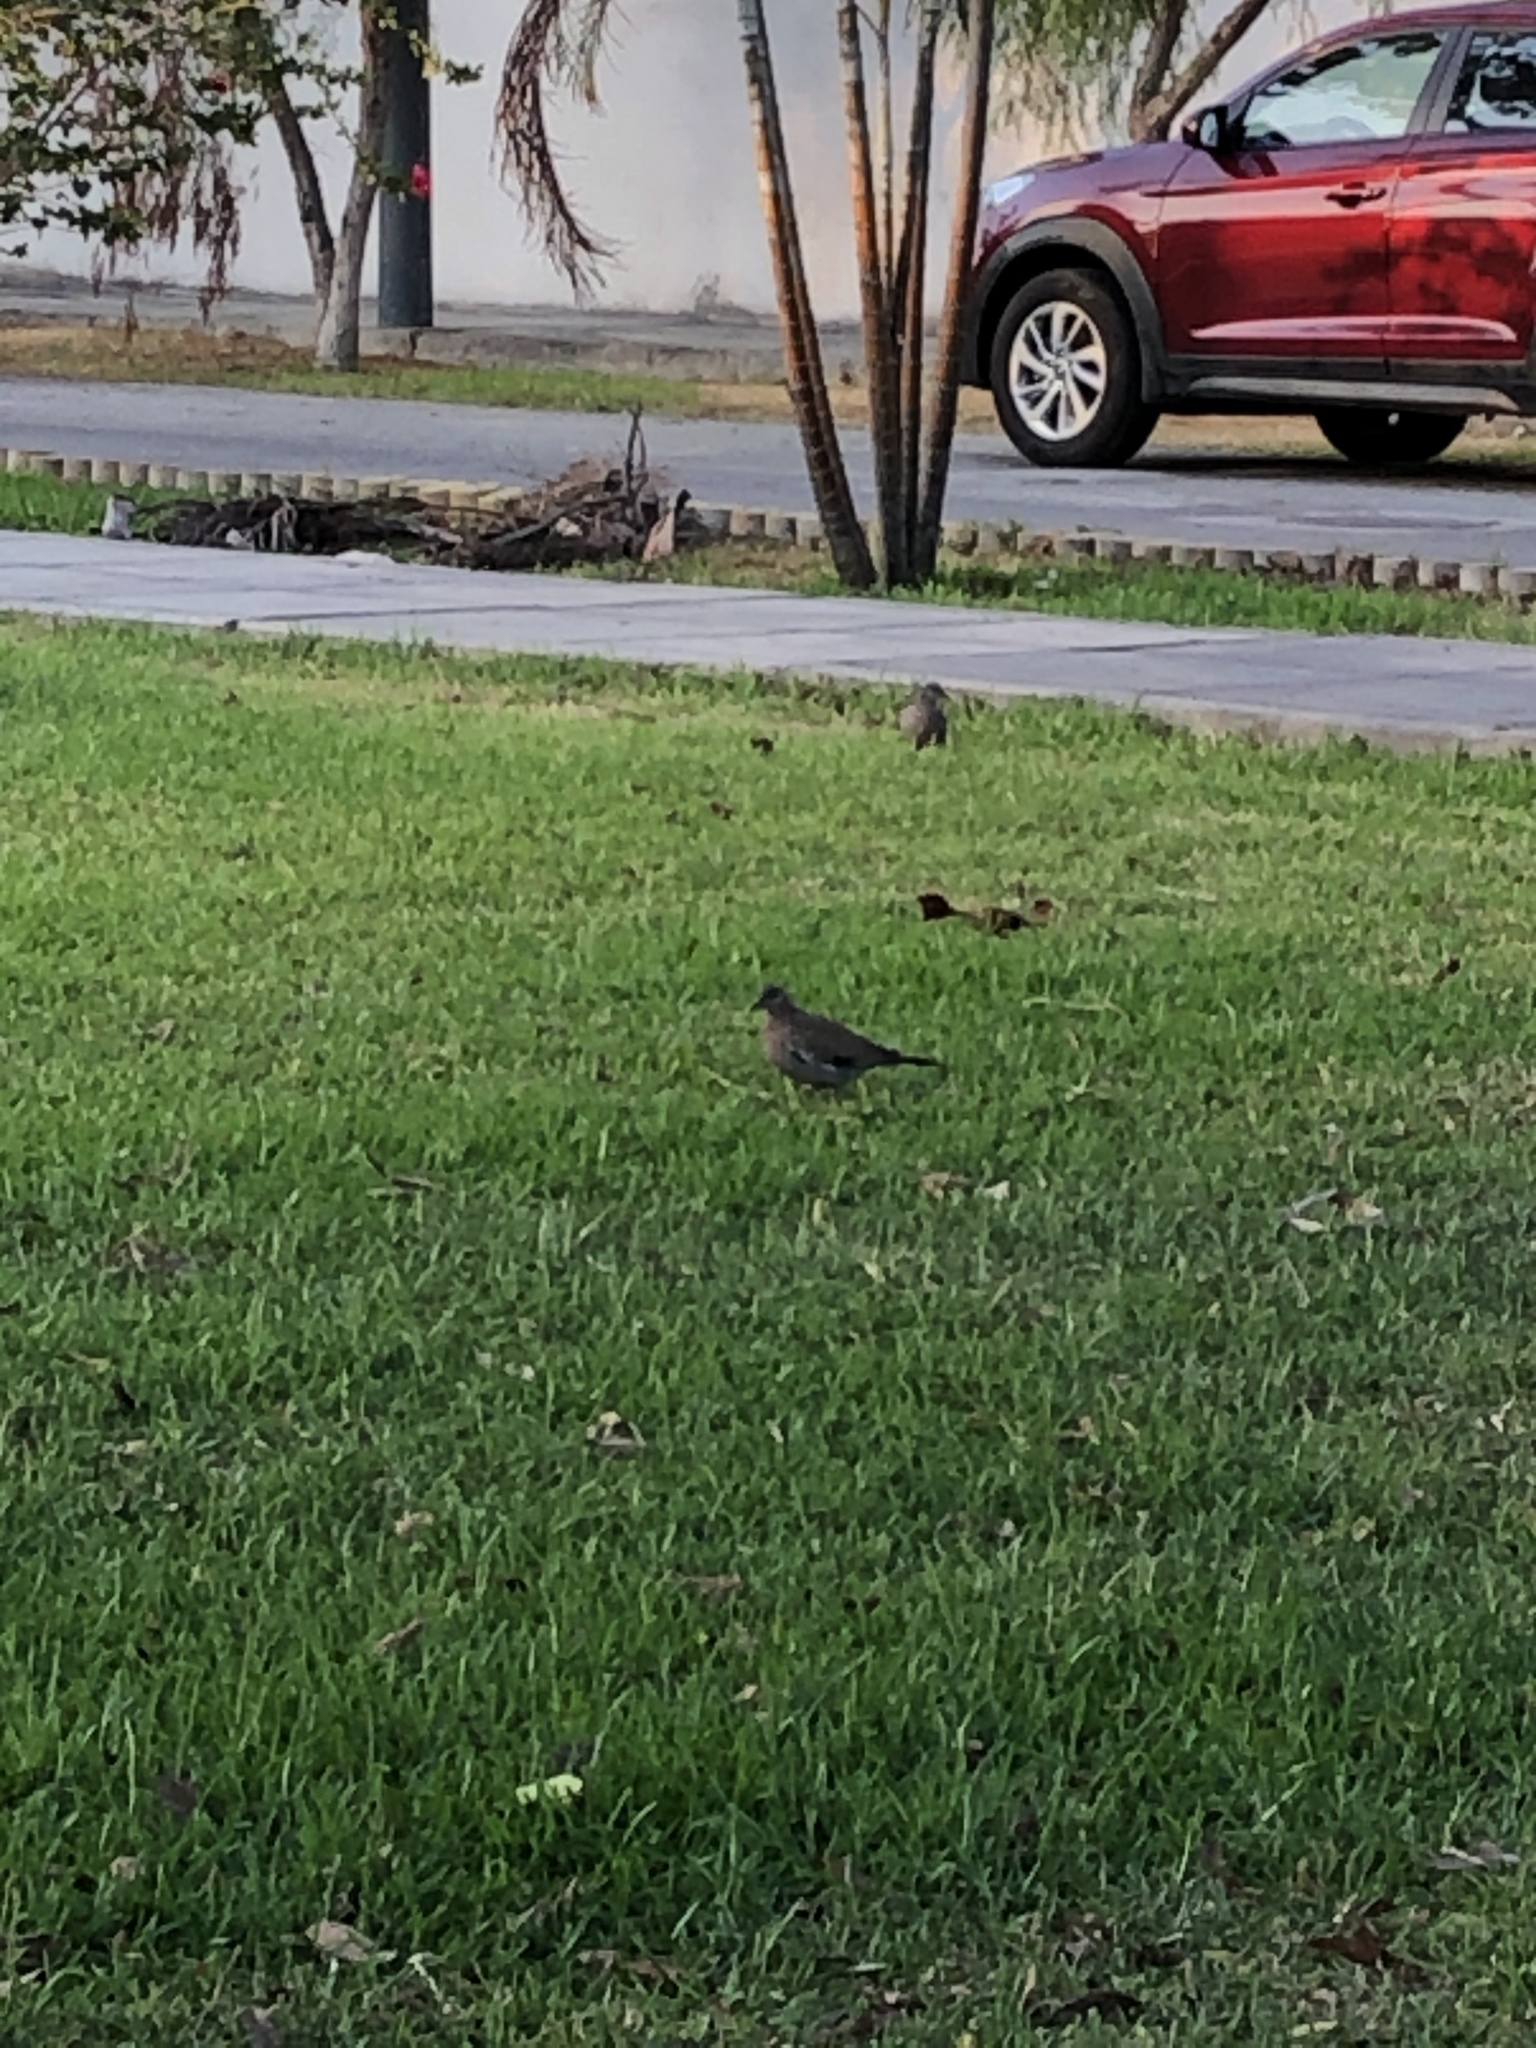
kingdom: Animalia
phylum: Chordata
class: Aves
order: Columbiformes
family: Columbidae
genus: Zenaida
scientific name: Zenaida meloda
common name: West peruvian dove
